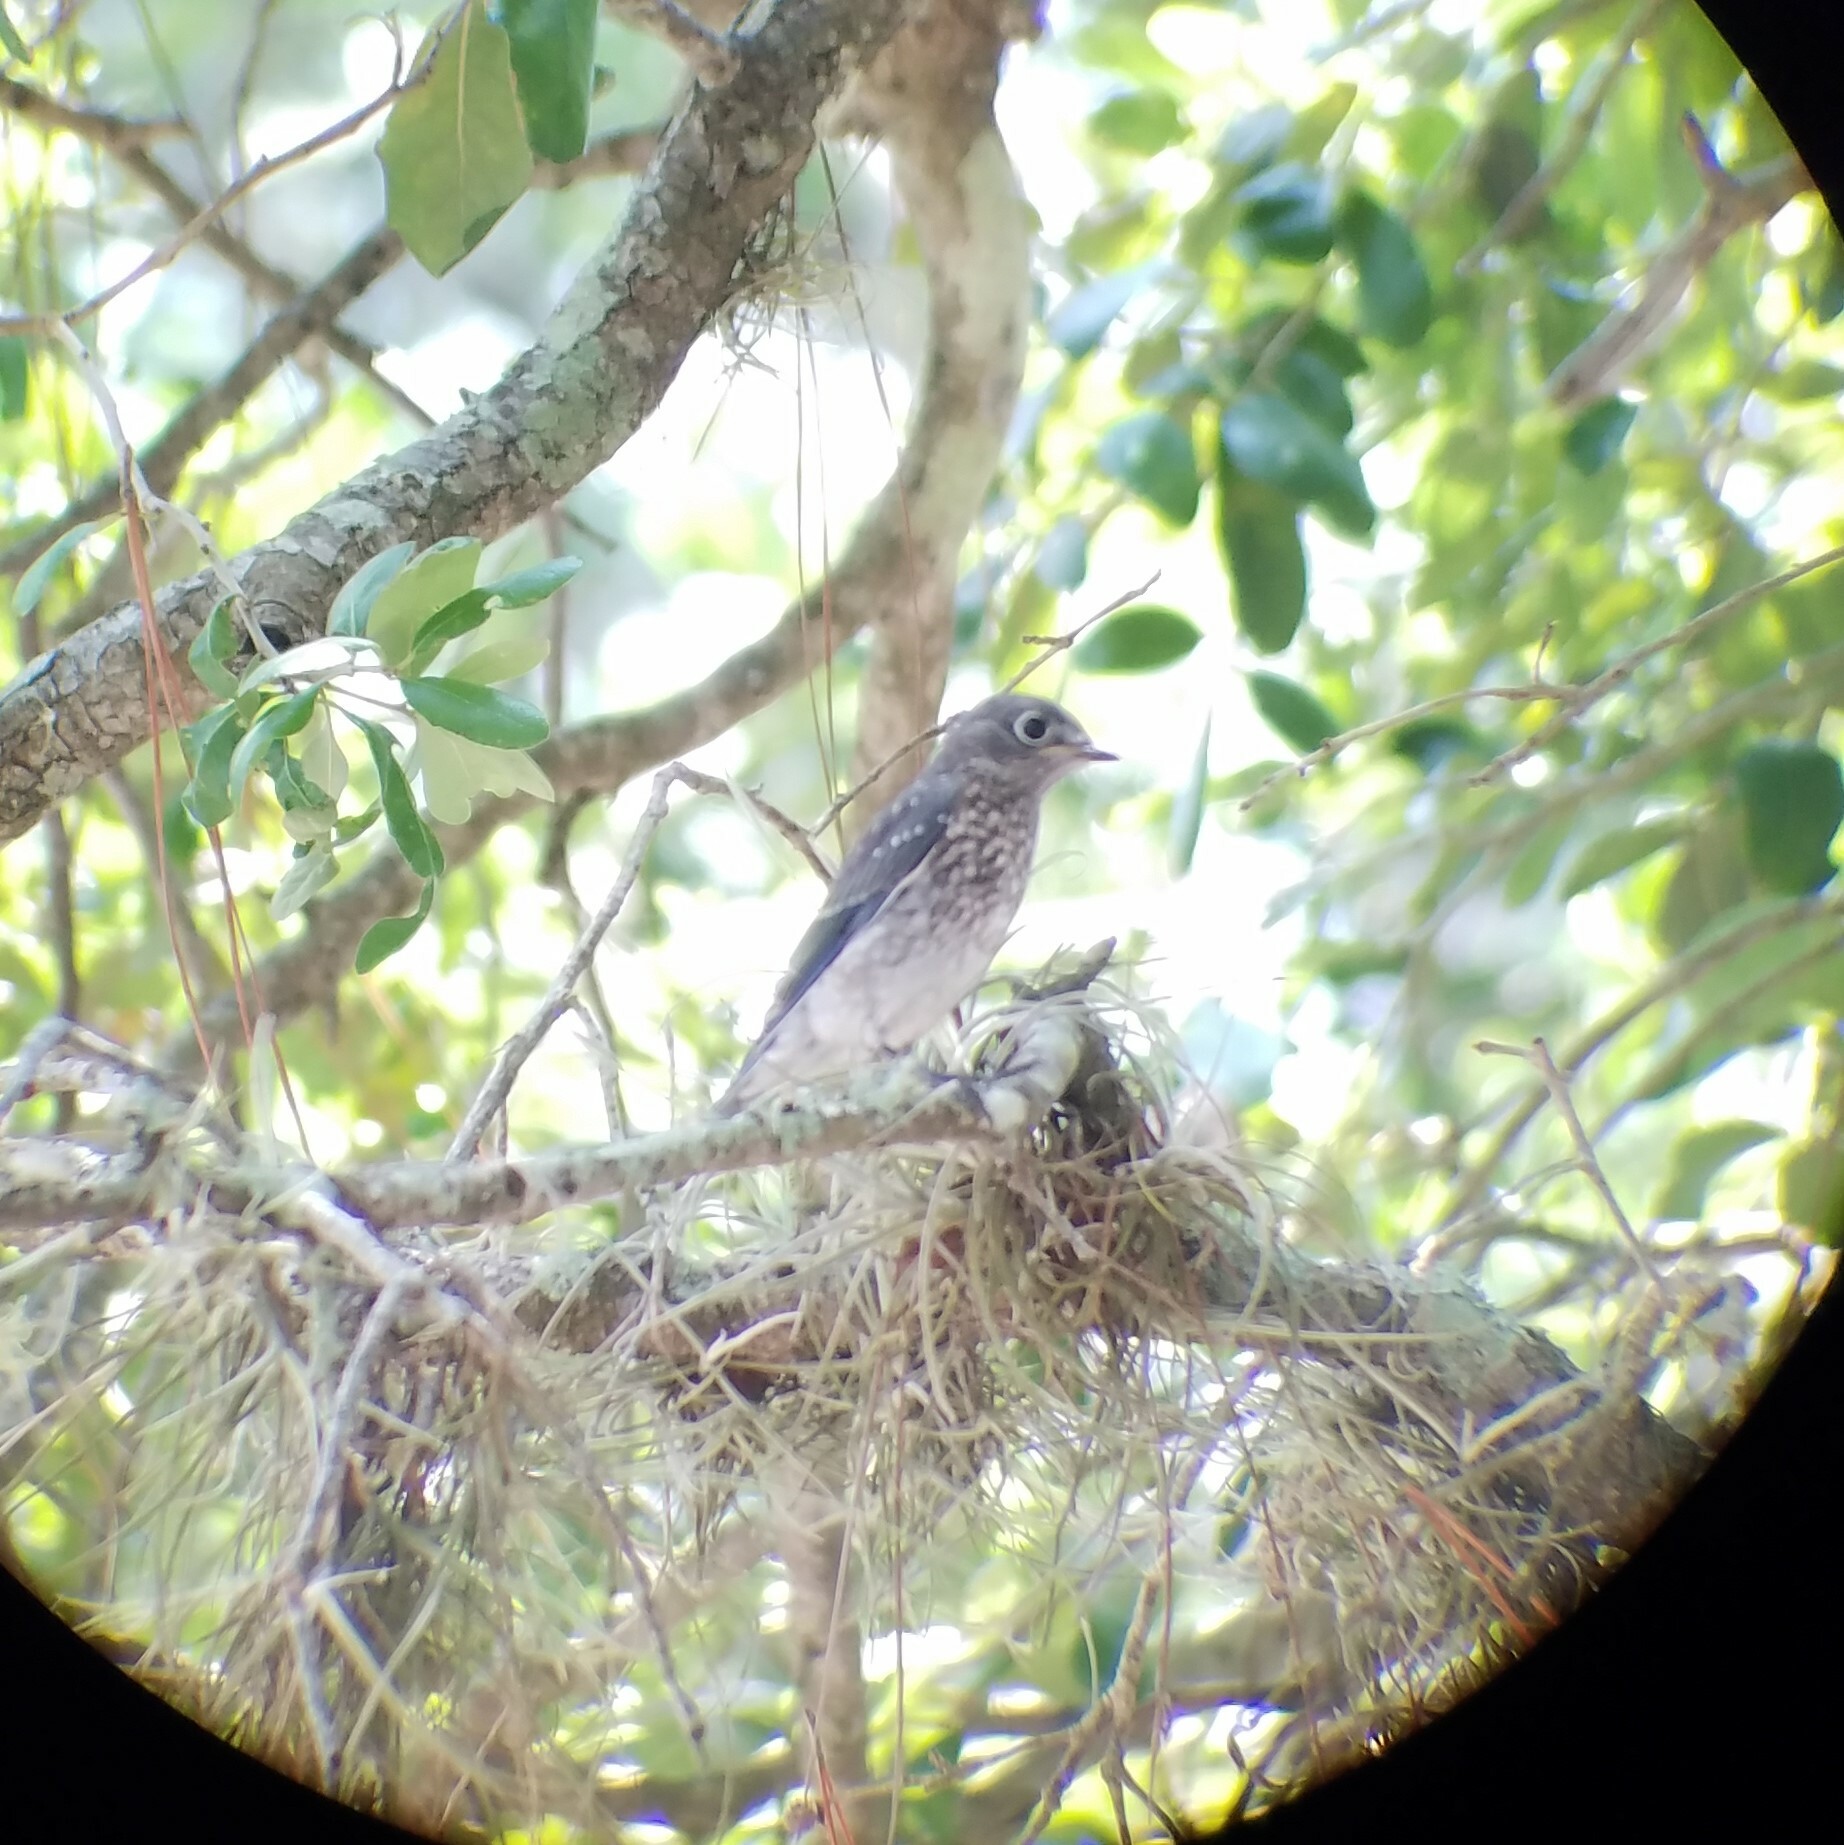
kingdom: Animalia
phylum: Chordata
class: Aves
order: Passeriformes
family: Turdidae
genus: Sialia
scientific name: Sialia sialis
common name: Eastern bluebird
